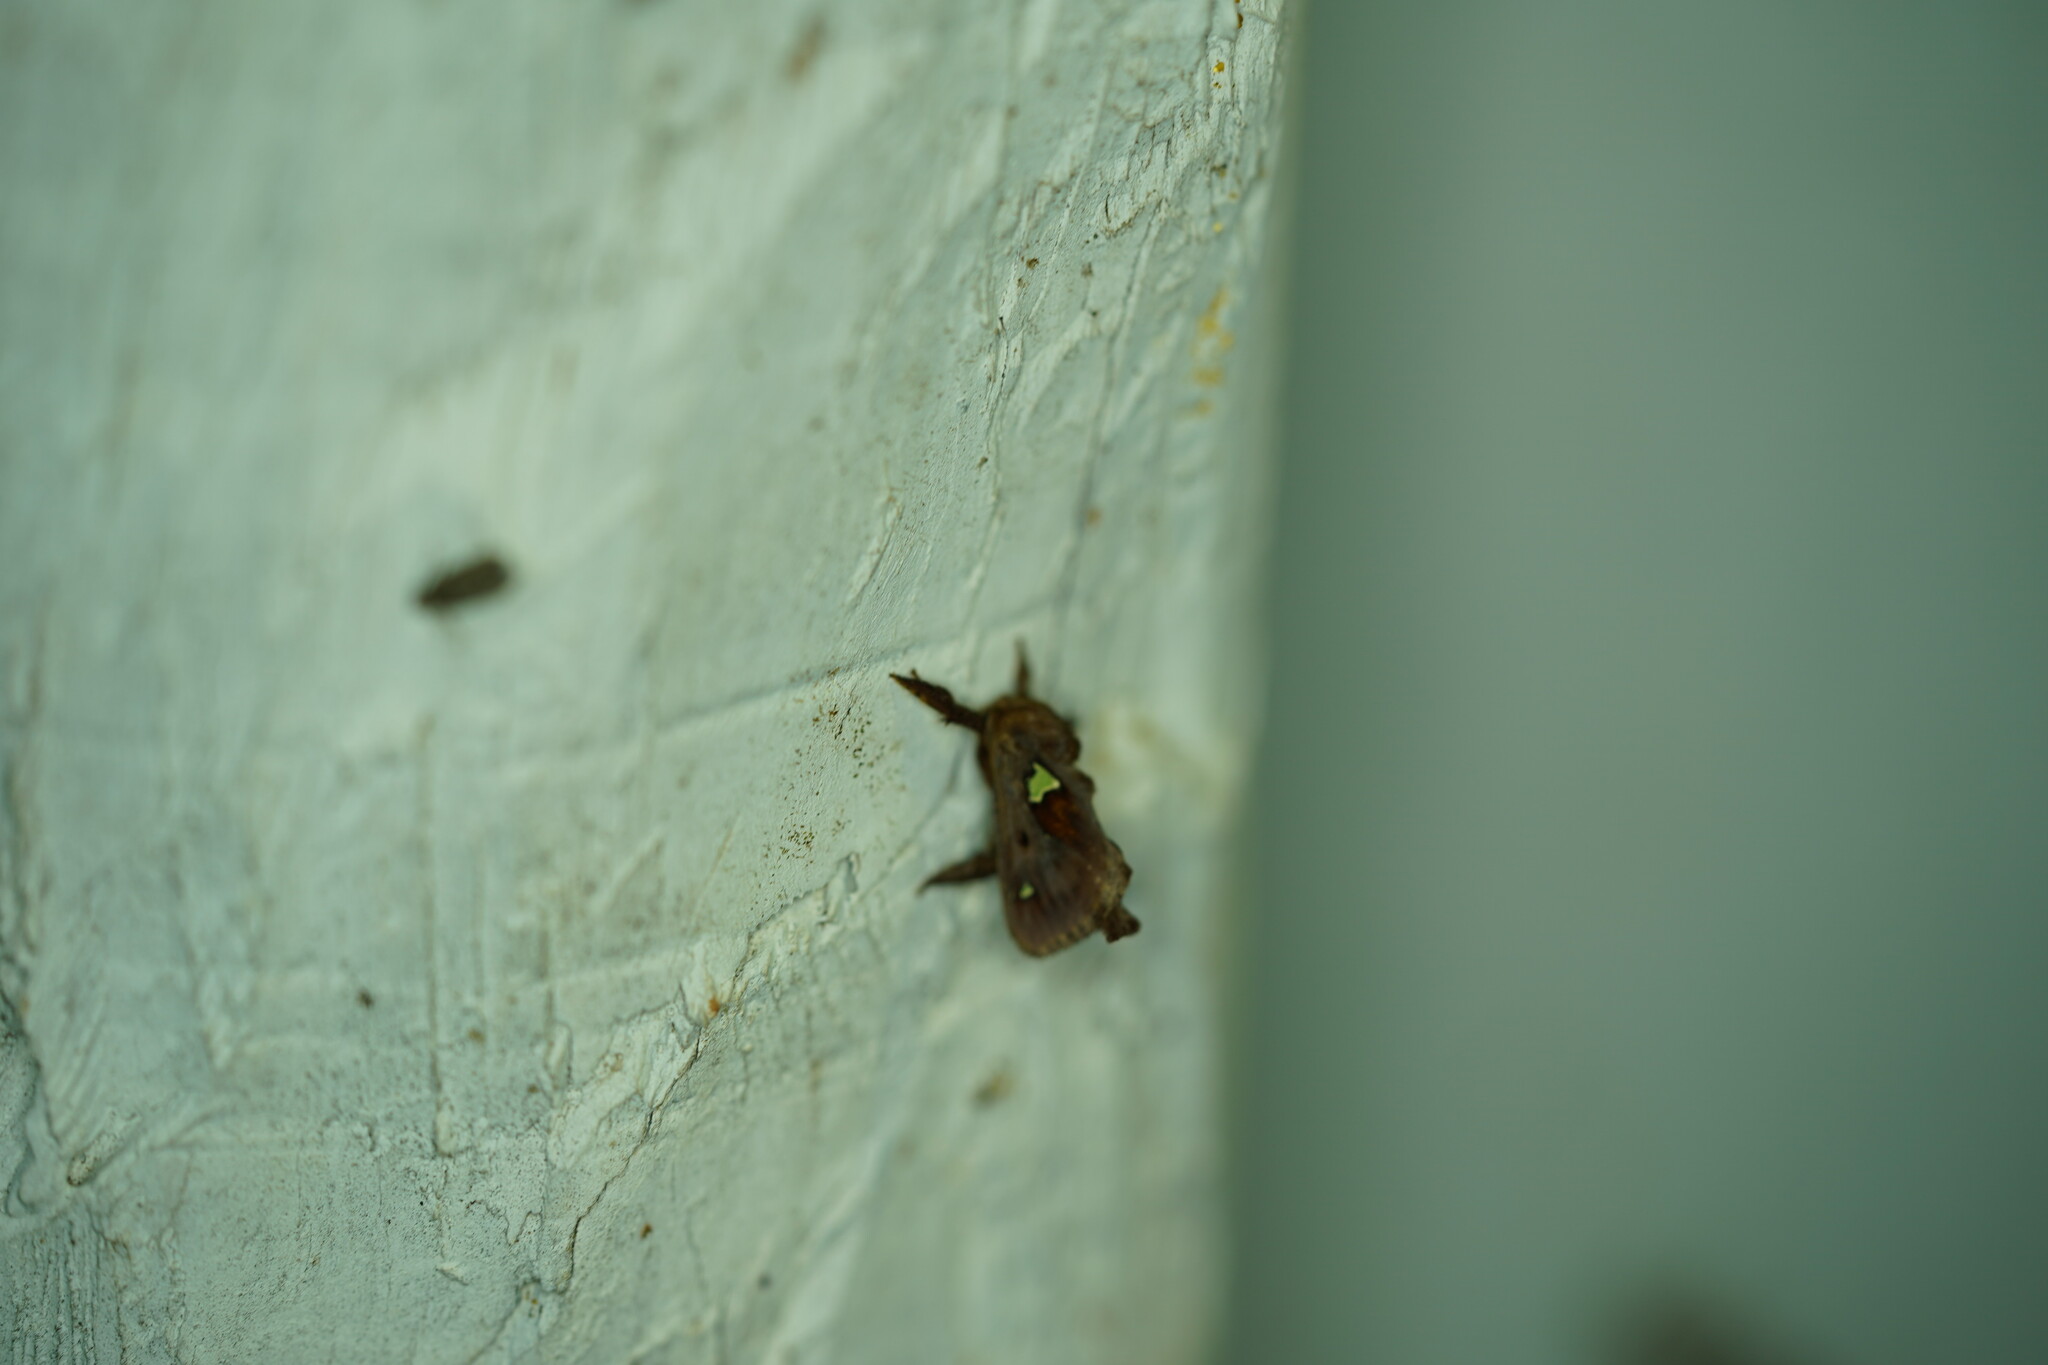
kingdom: Animalia
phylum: Arthropoda
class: Insecta
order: Lepidoptera
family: Limacodidae
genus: Euclea
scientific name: Euclea delphinii
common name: Spiny oak-slug moth
